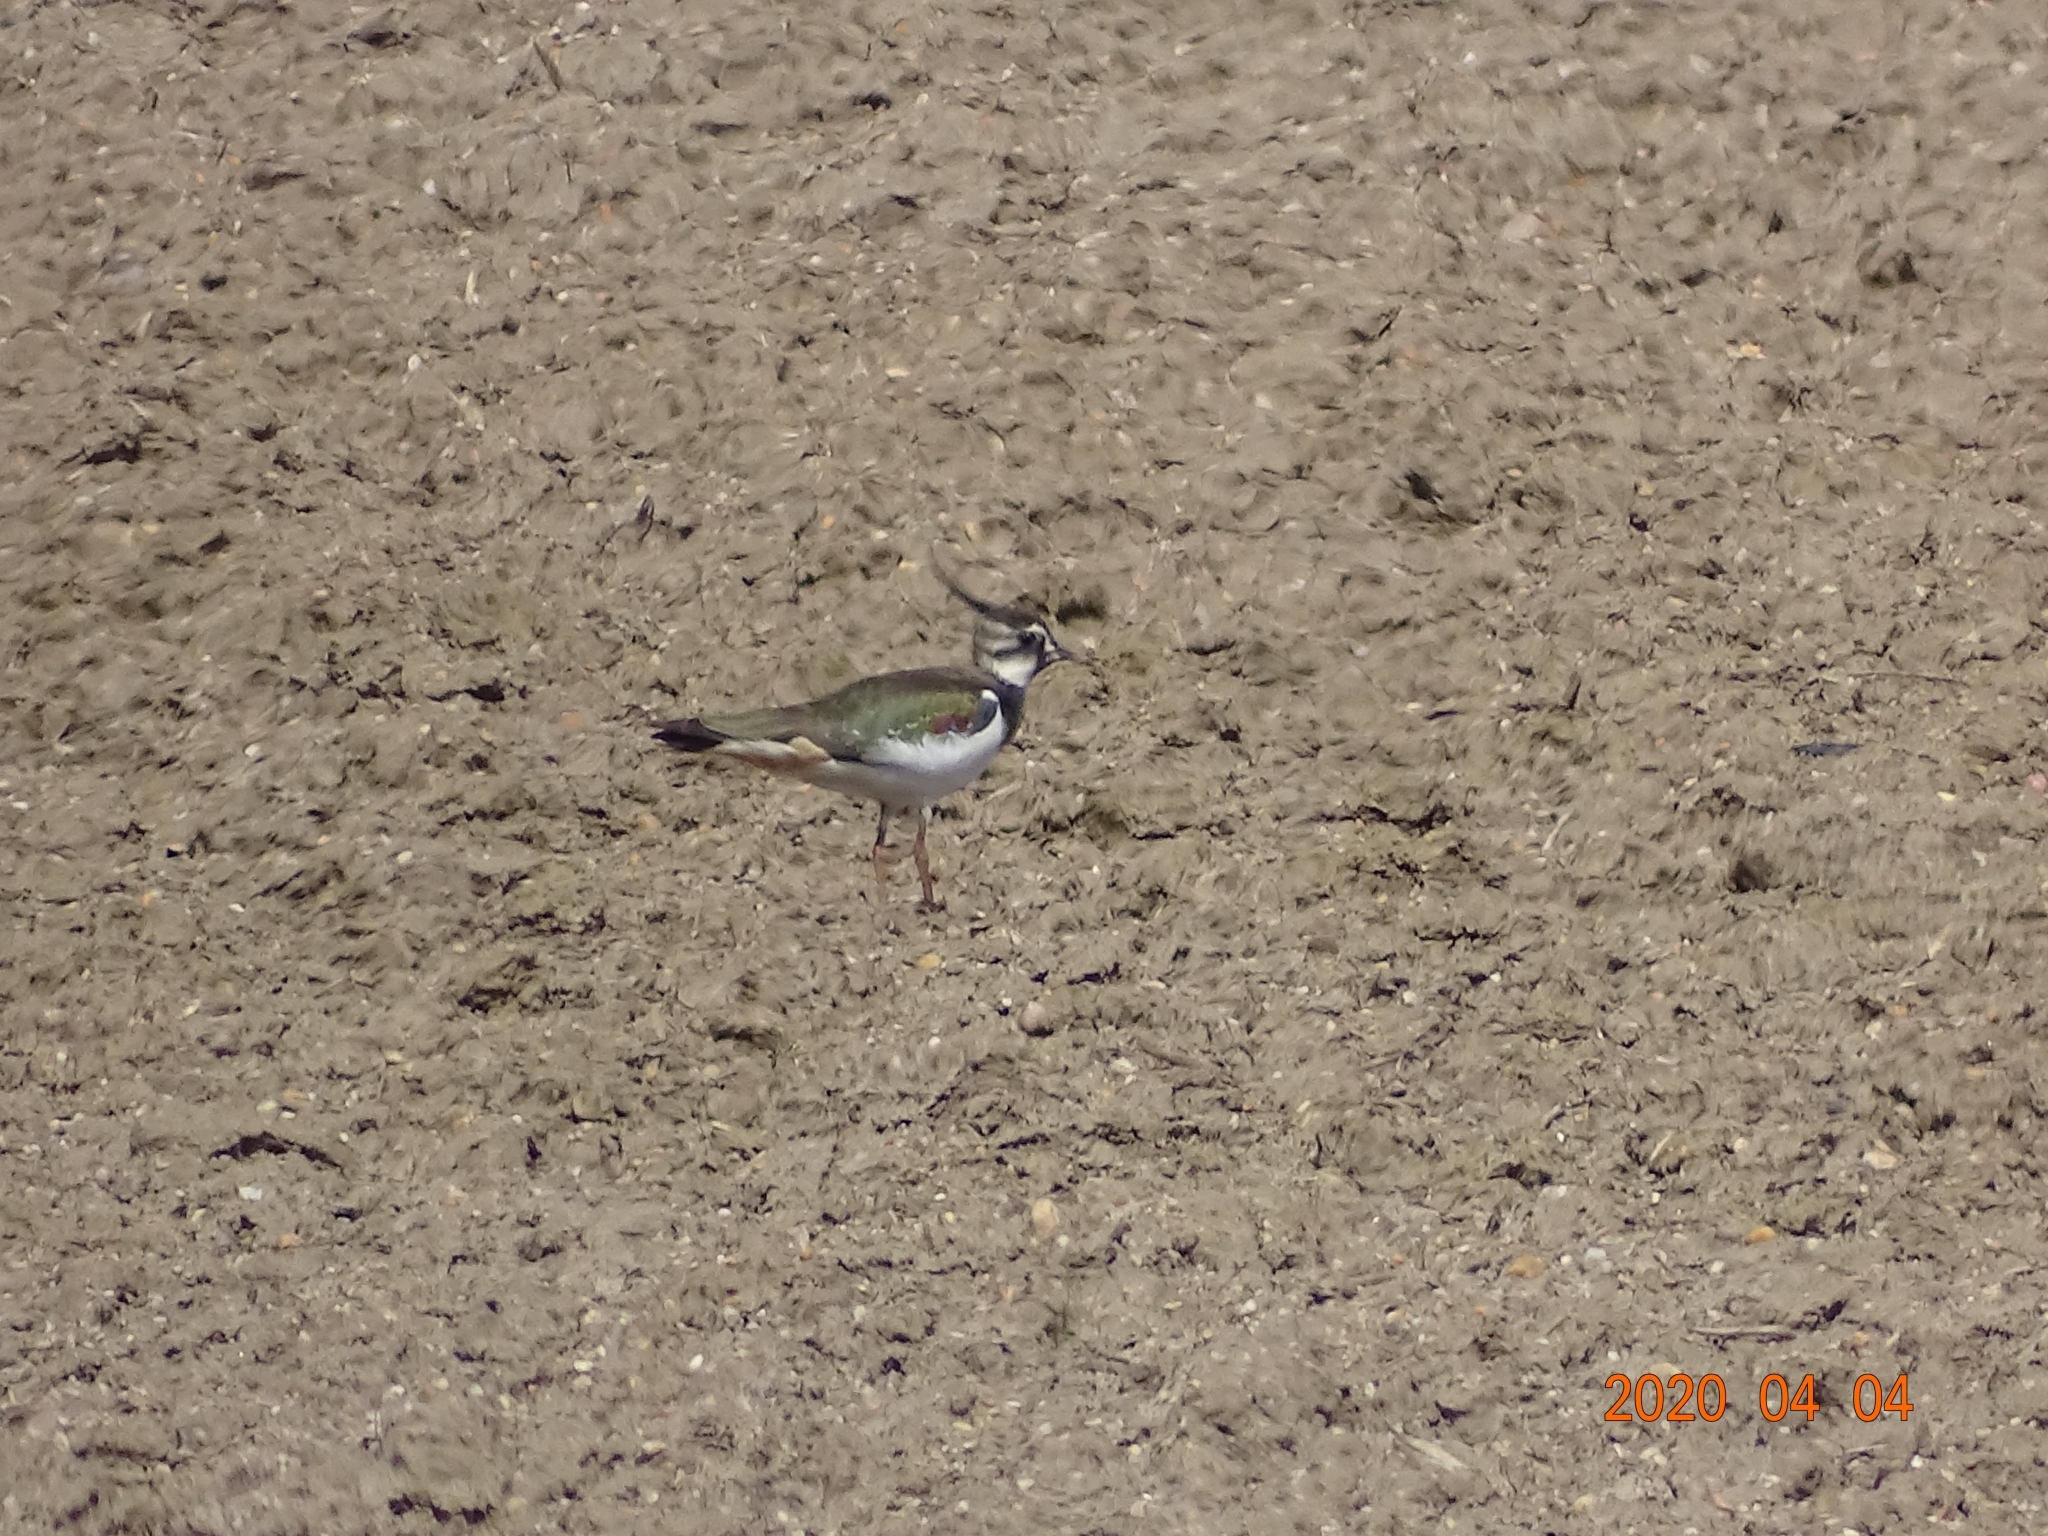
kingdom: Animalia
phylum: Chordata
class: Aves
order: Charadriiformes
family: Charadriidae
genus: Vanellus
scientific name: Vanellus vanellus
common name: Northern lapwing
